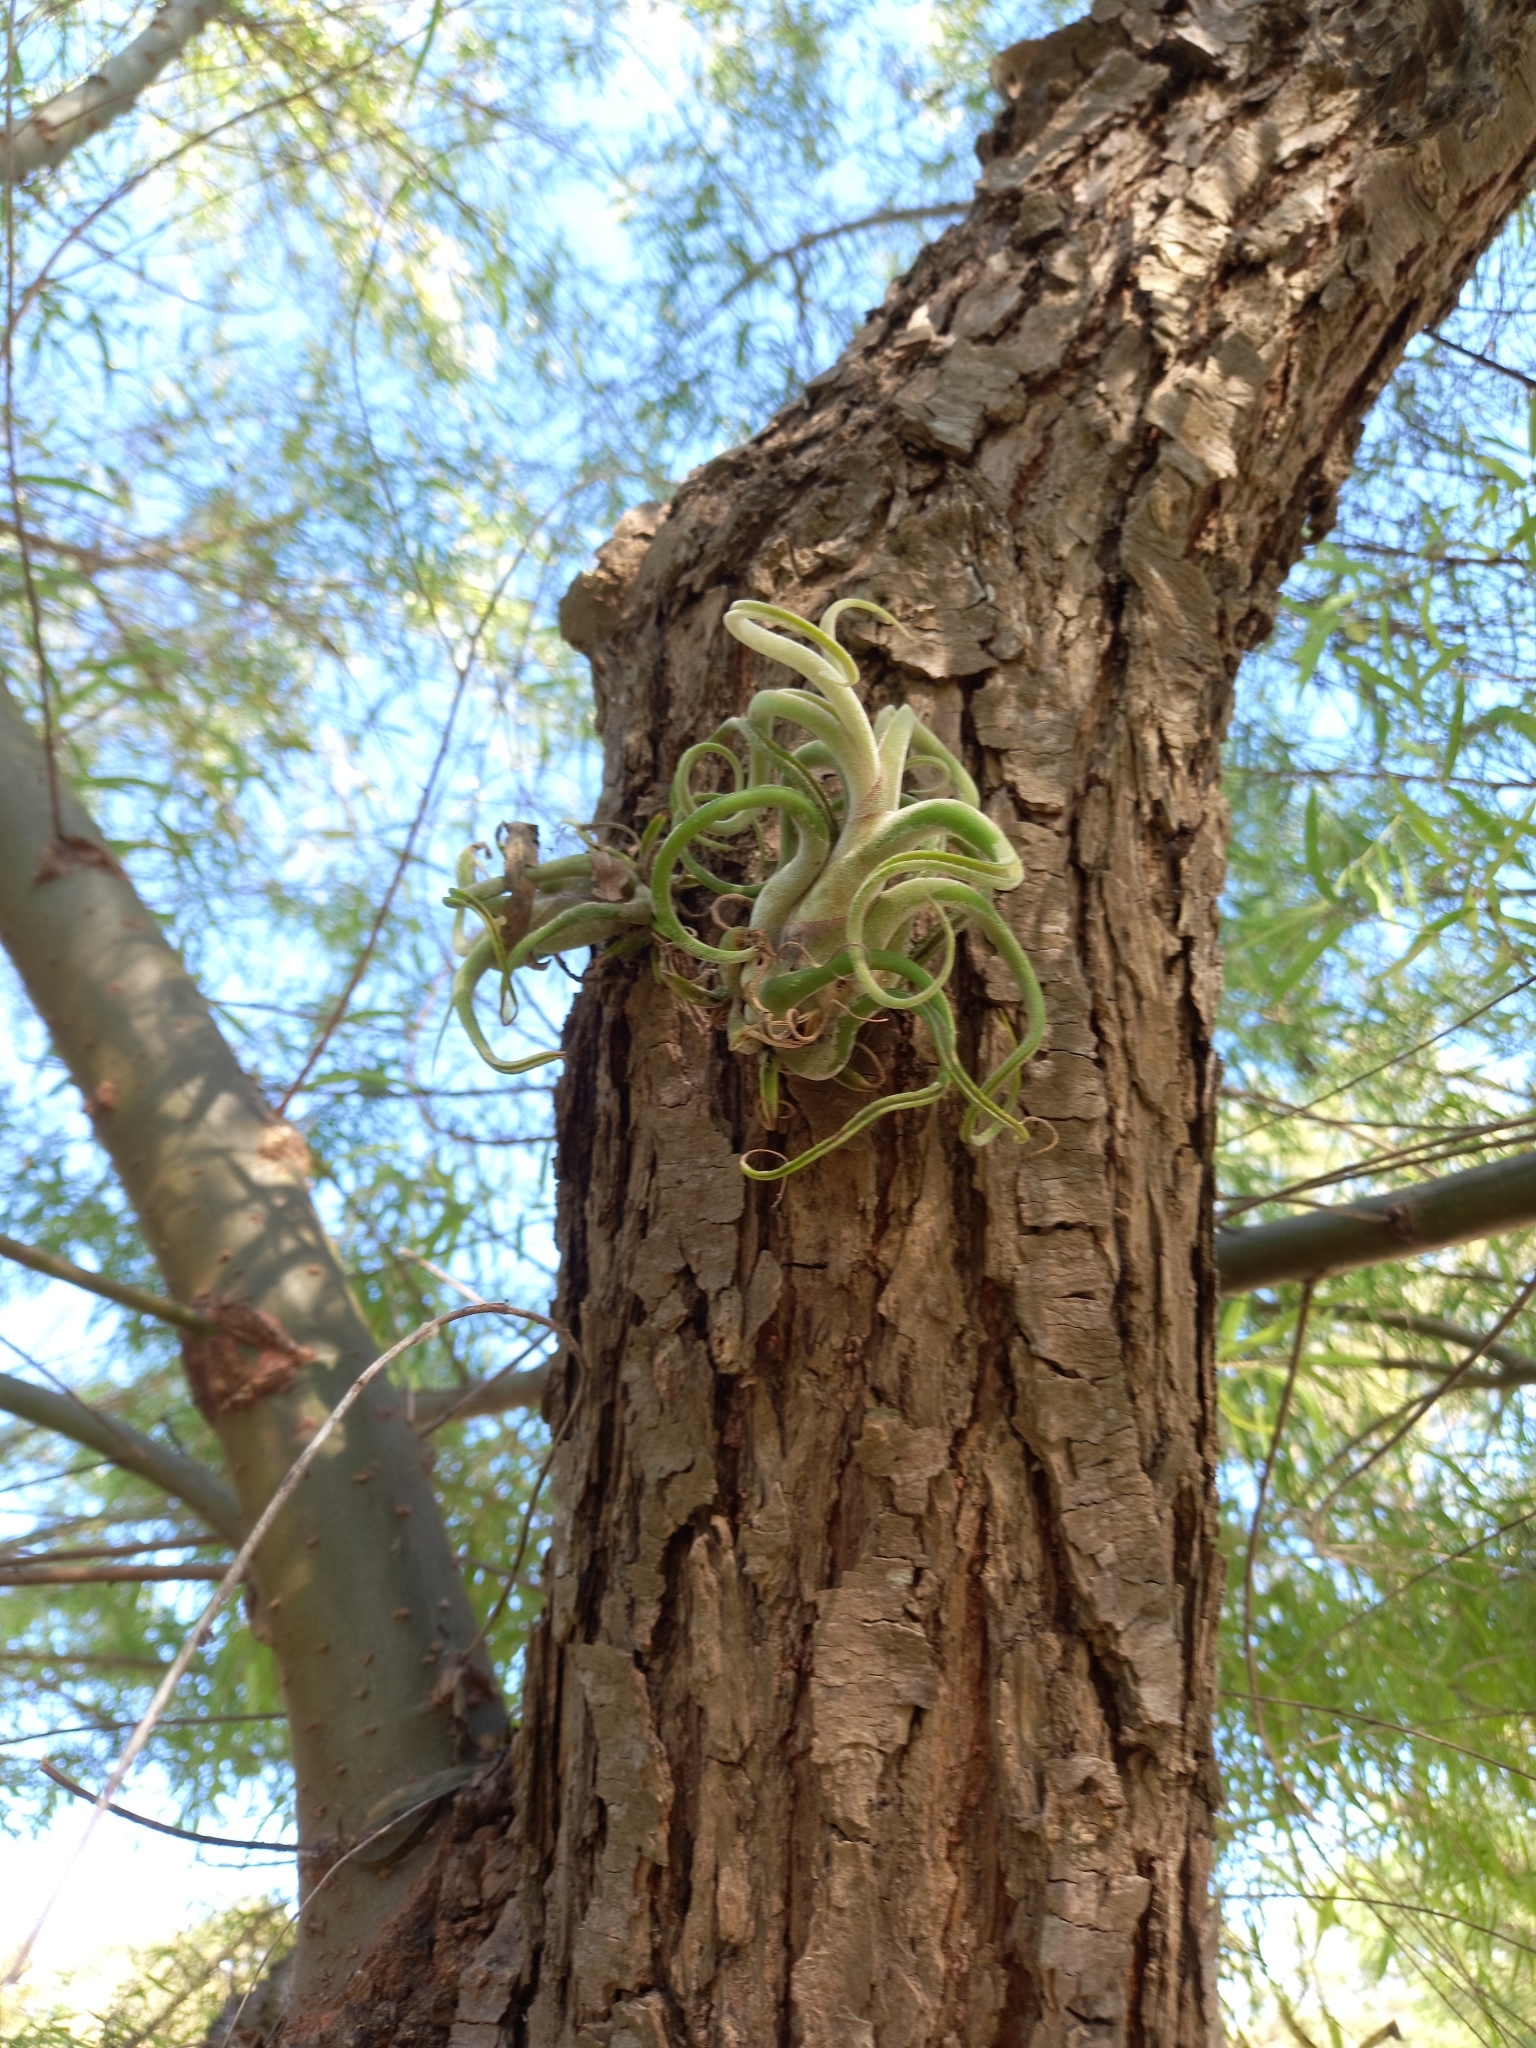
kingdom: Plantae
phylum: Tracheophyta
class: Liliopsida
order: Poales
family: Bromeliaceae
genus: Tillandsia
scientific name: Tillandsia caput-medusae
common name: Octopus plant
